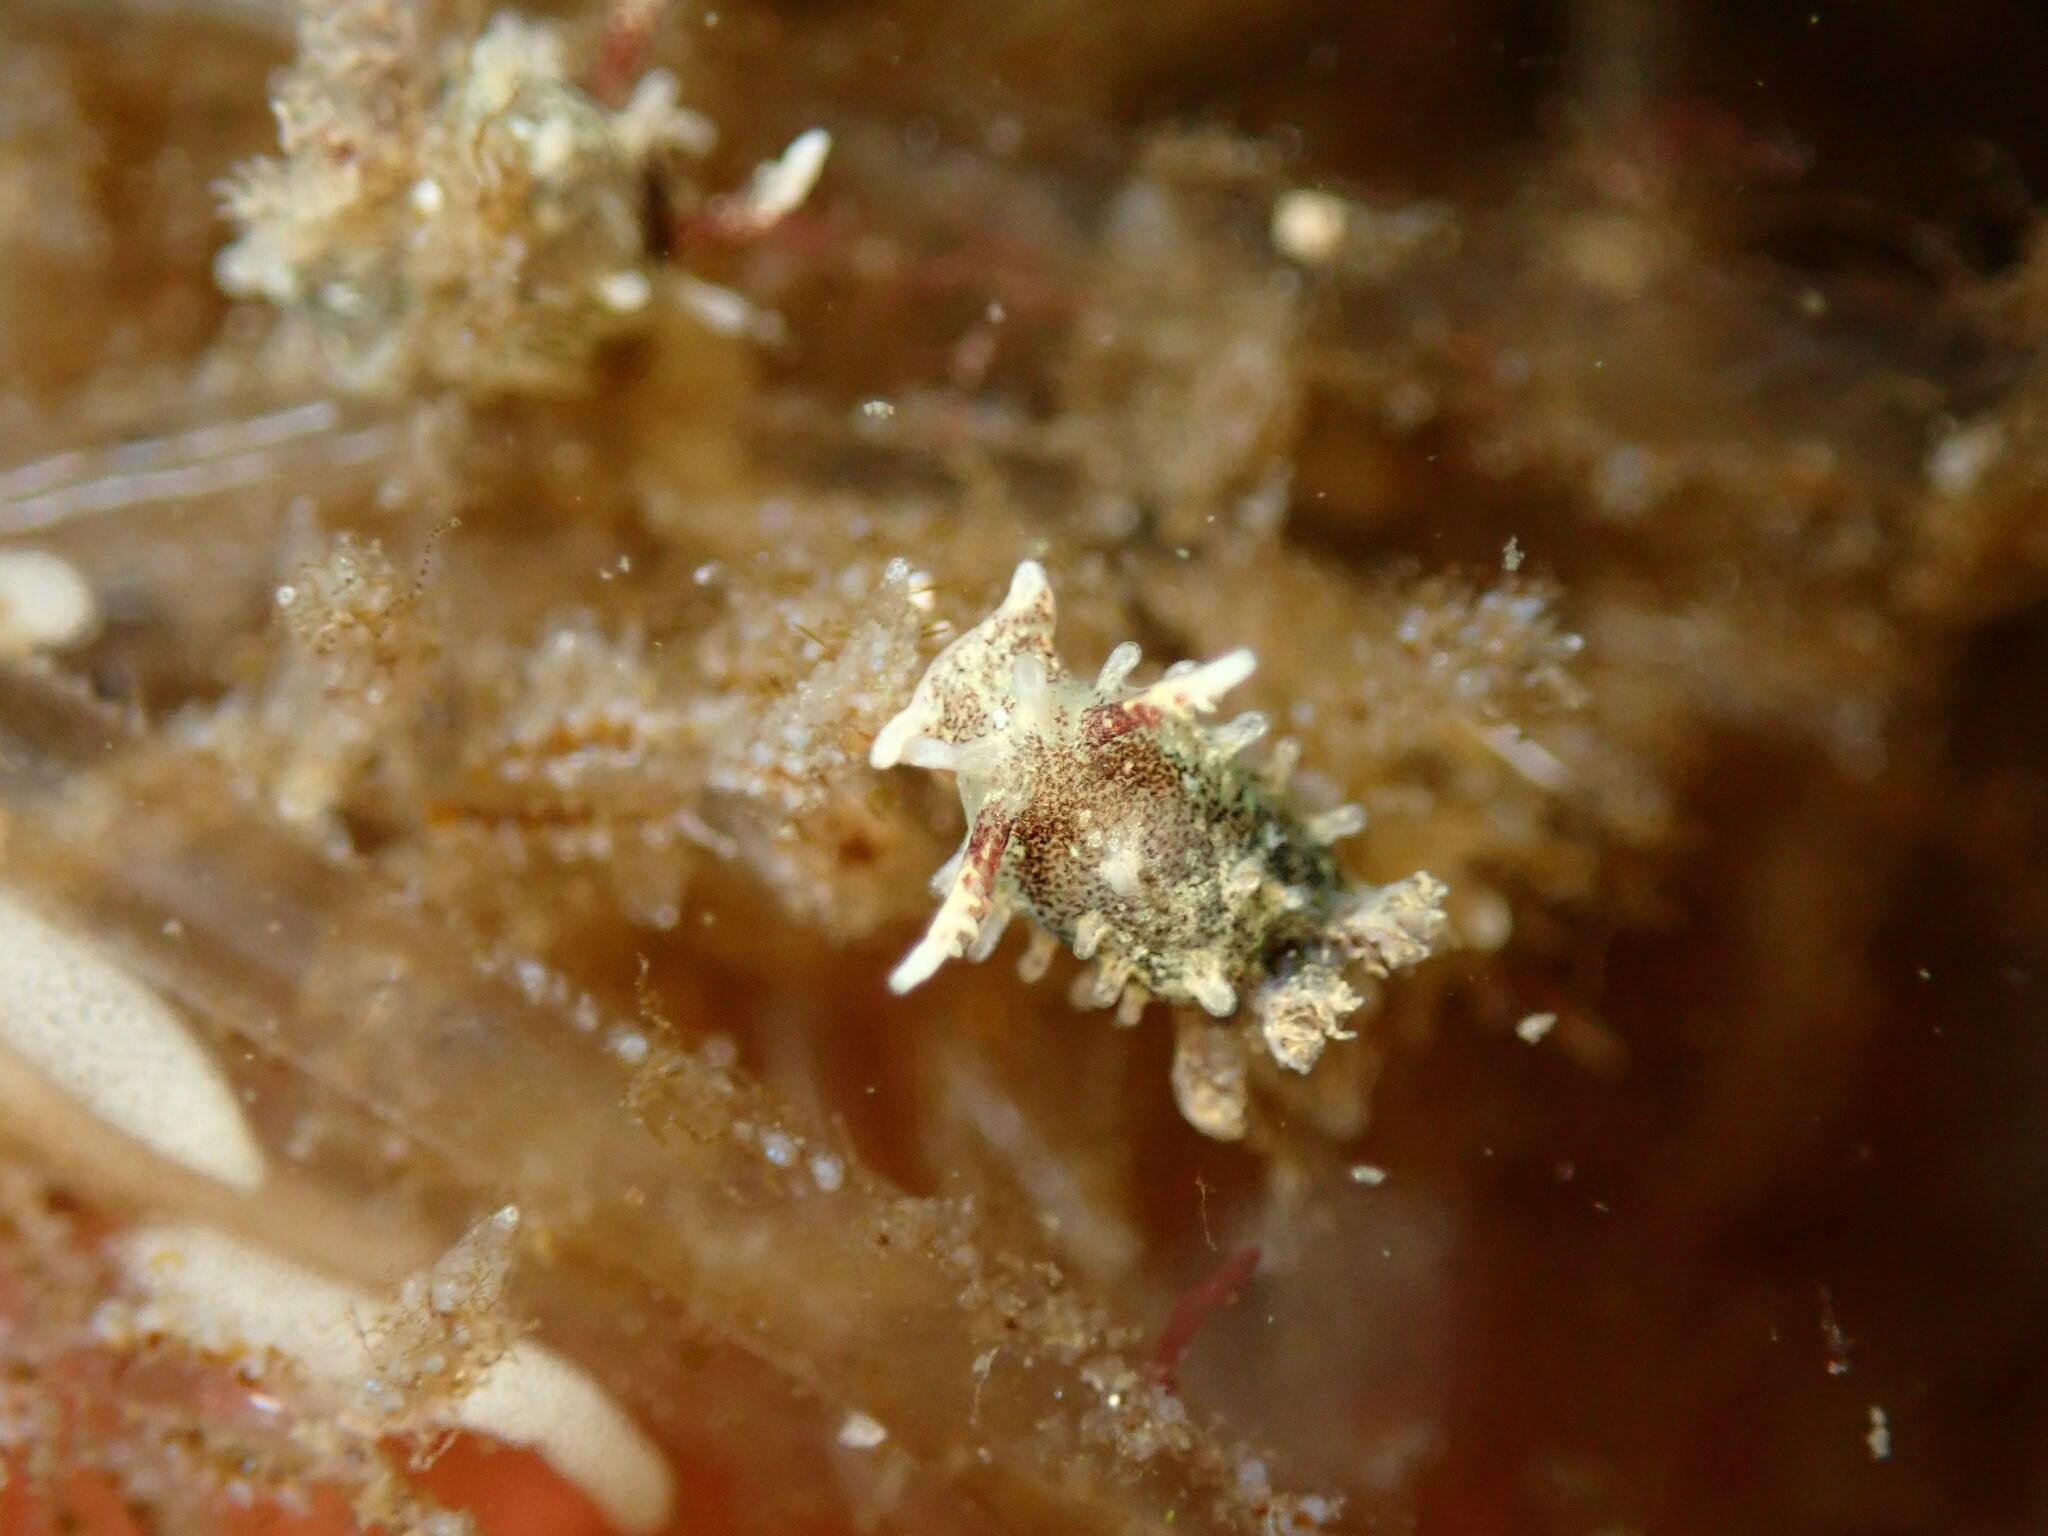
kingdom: Animalia
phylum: Mollusca
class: Gastropoda
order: Nudibranchia
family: Goniodorididae
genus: Okenia
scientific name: Okenia
